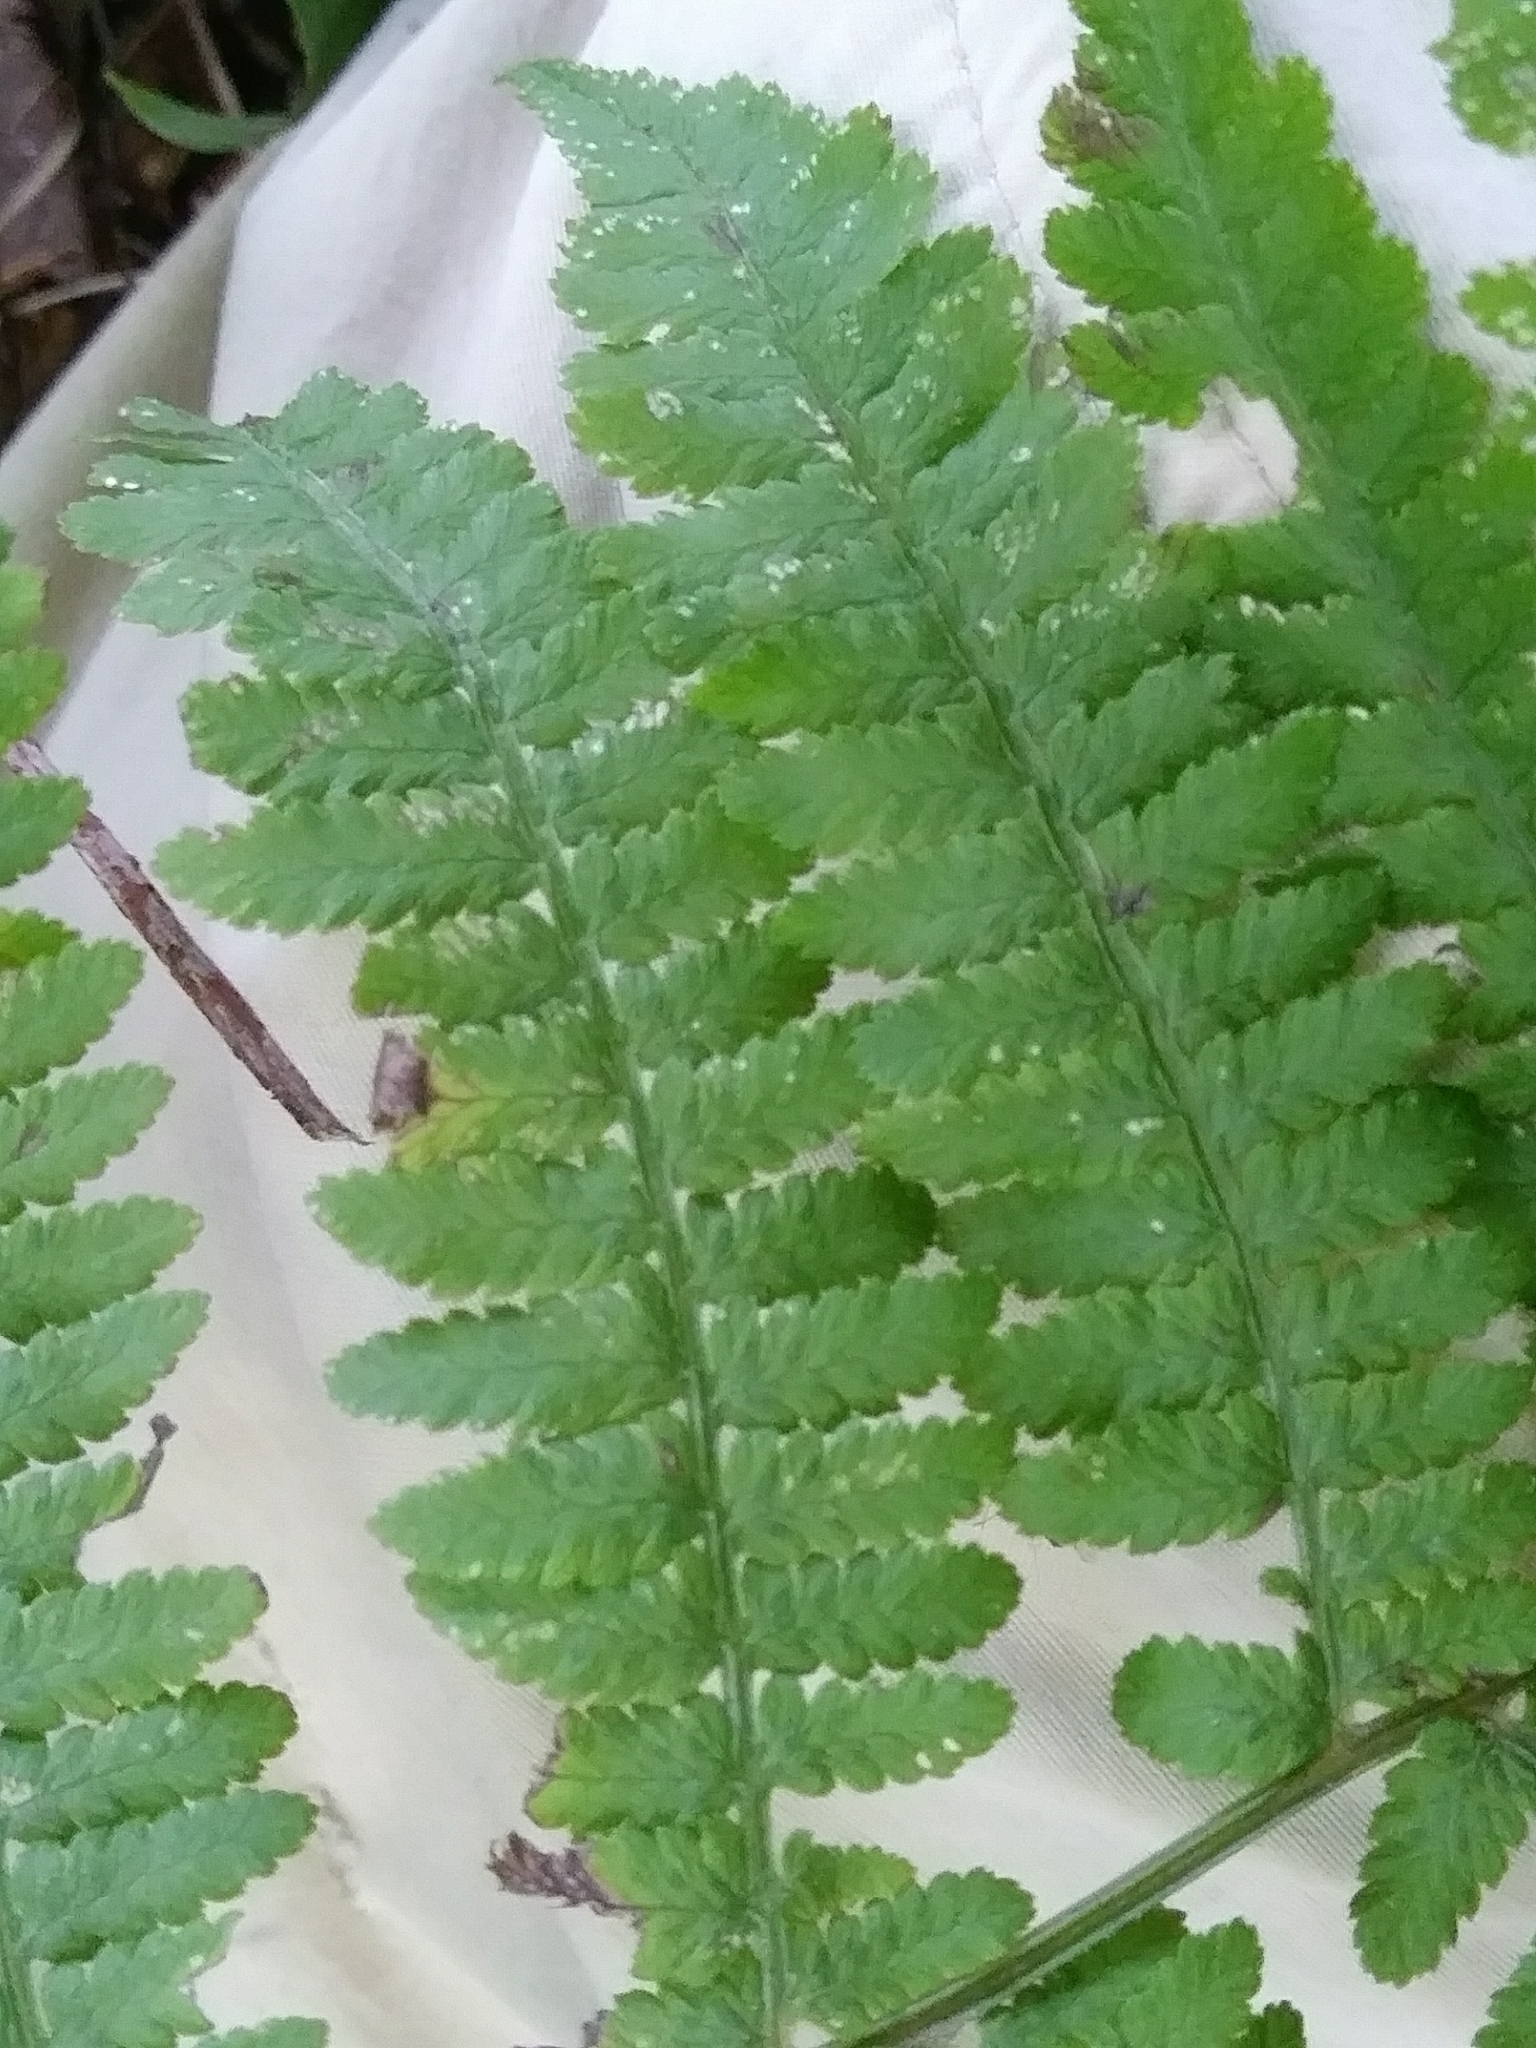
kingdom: Plantae
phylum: Tracheophyta
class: Polypodiopsida
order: Polypodiales
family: Athyriaceae
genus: Athyrium
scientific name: Athyrium angustum
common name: Northern lady fern
